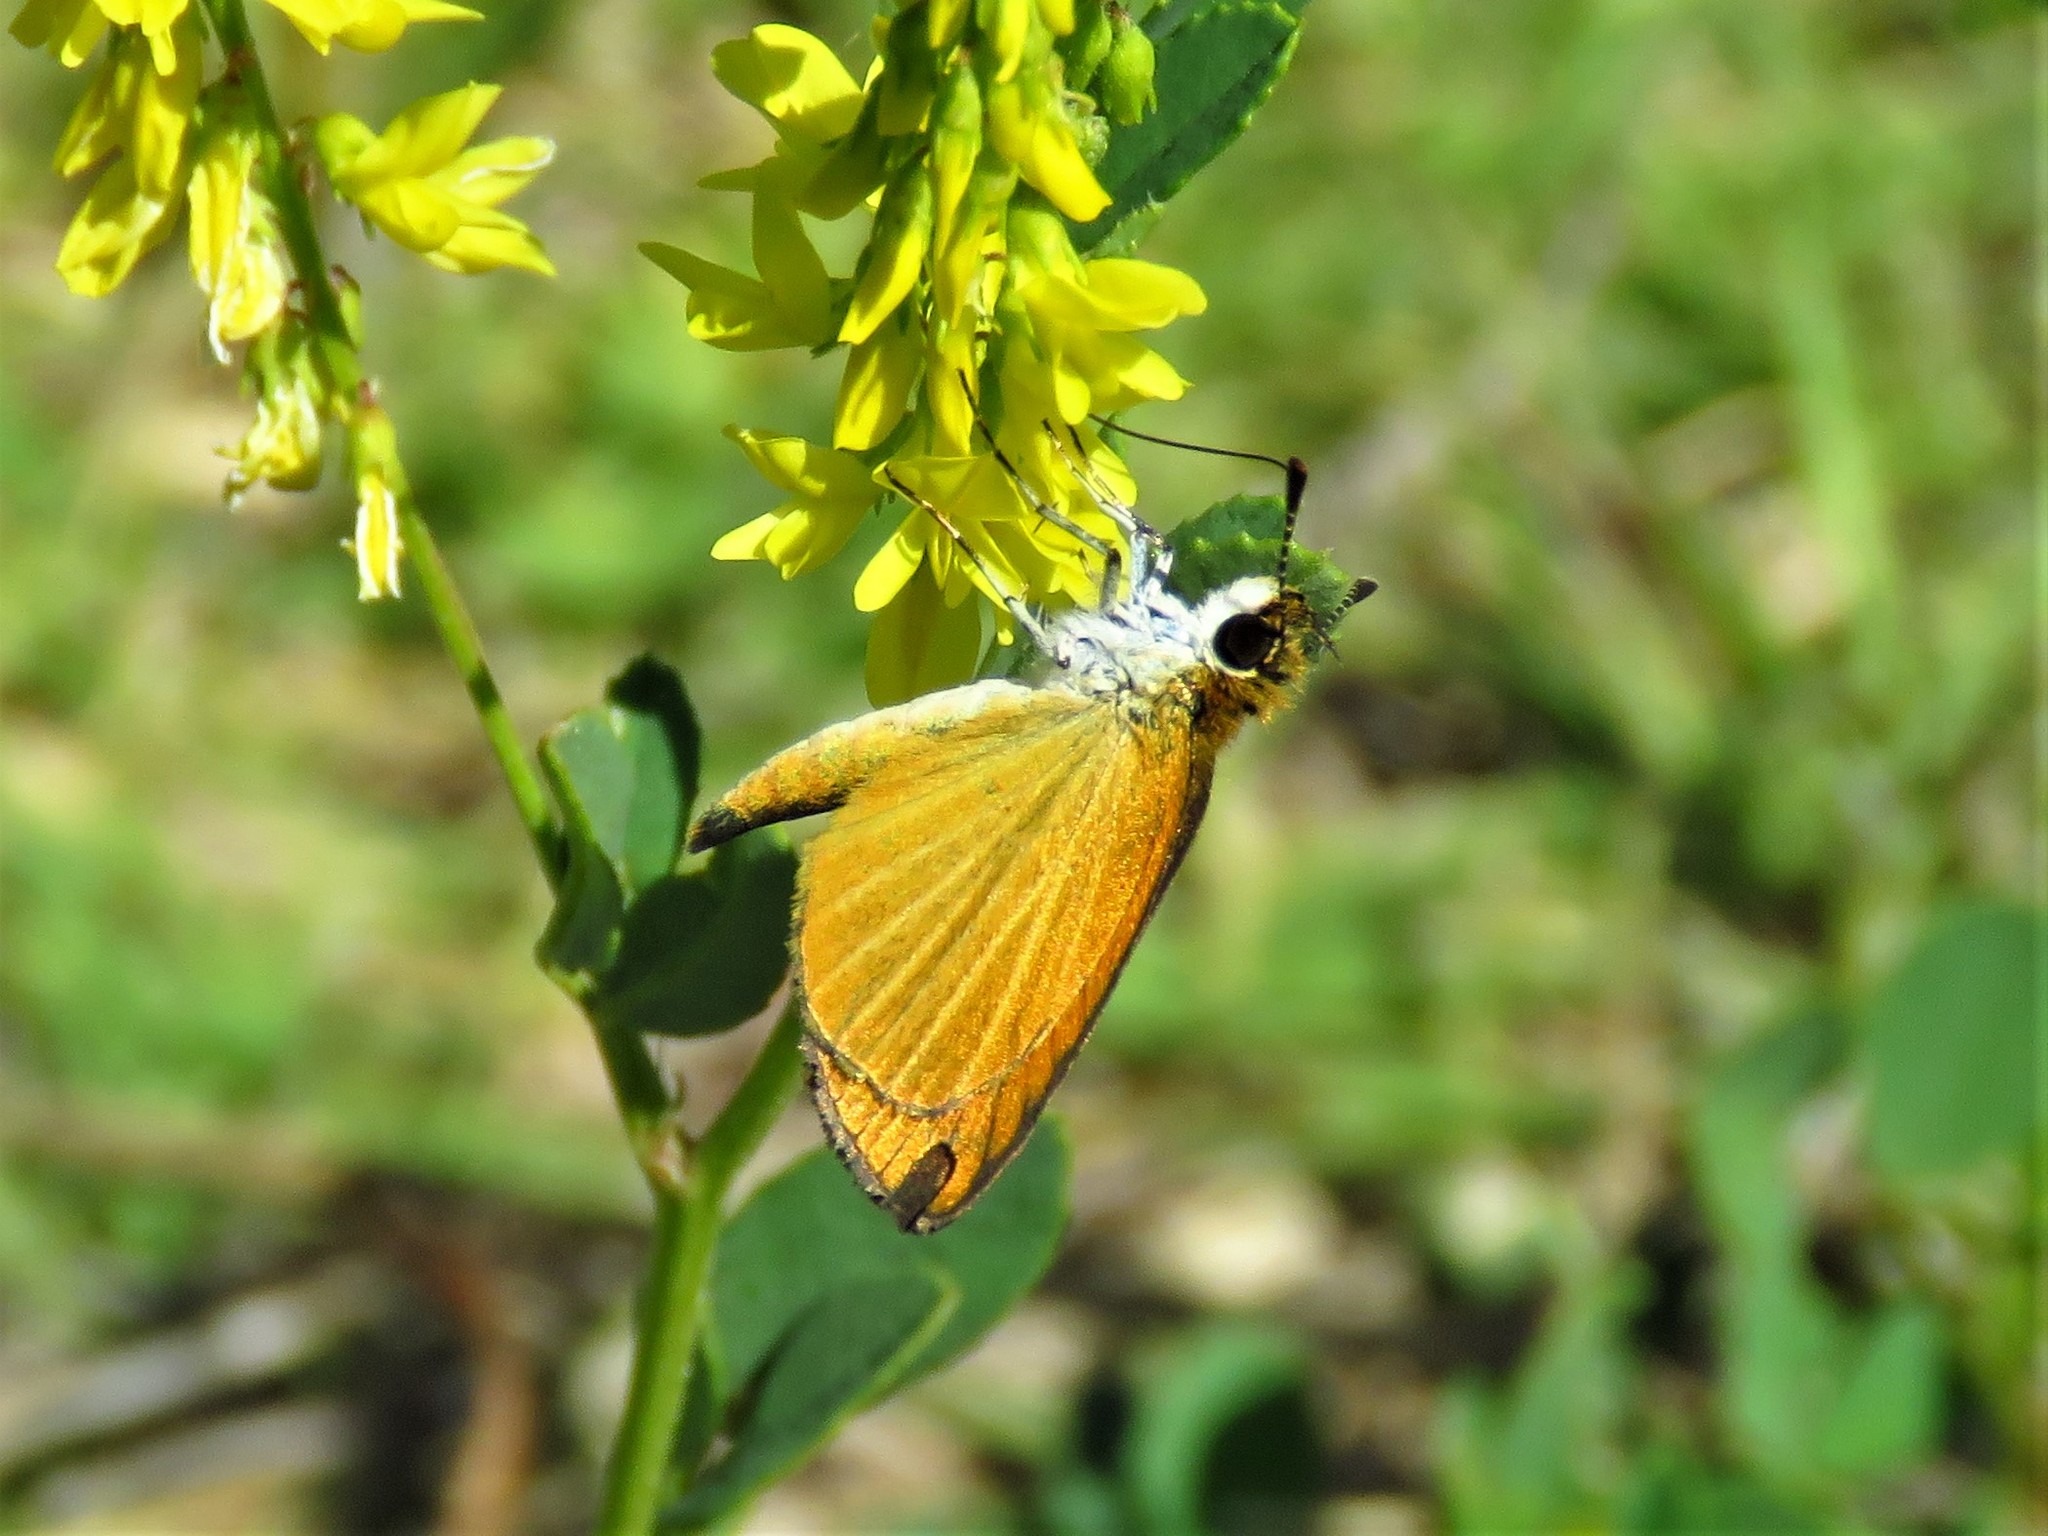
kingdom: Animalia
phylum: Arthropoda
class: Insecta
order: Lepidoptera
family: Hesperiidae
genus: Ancyloxypha
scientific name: Ancyloxypha numitor
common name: Least skipper
